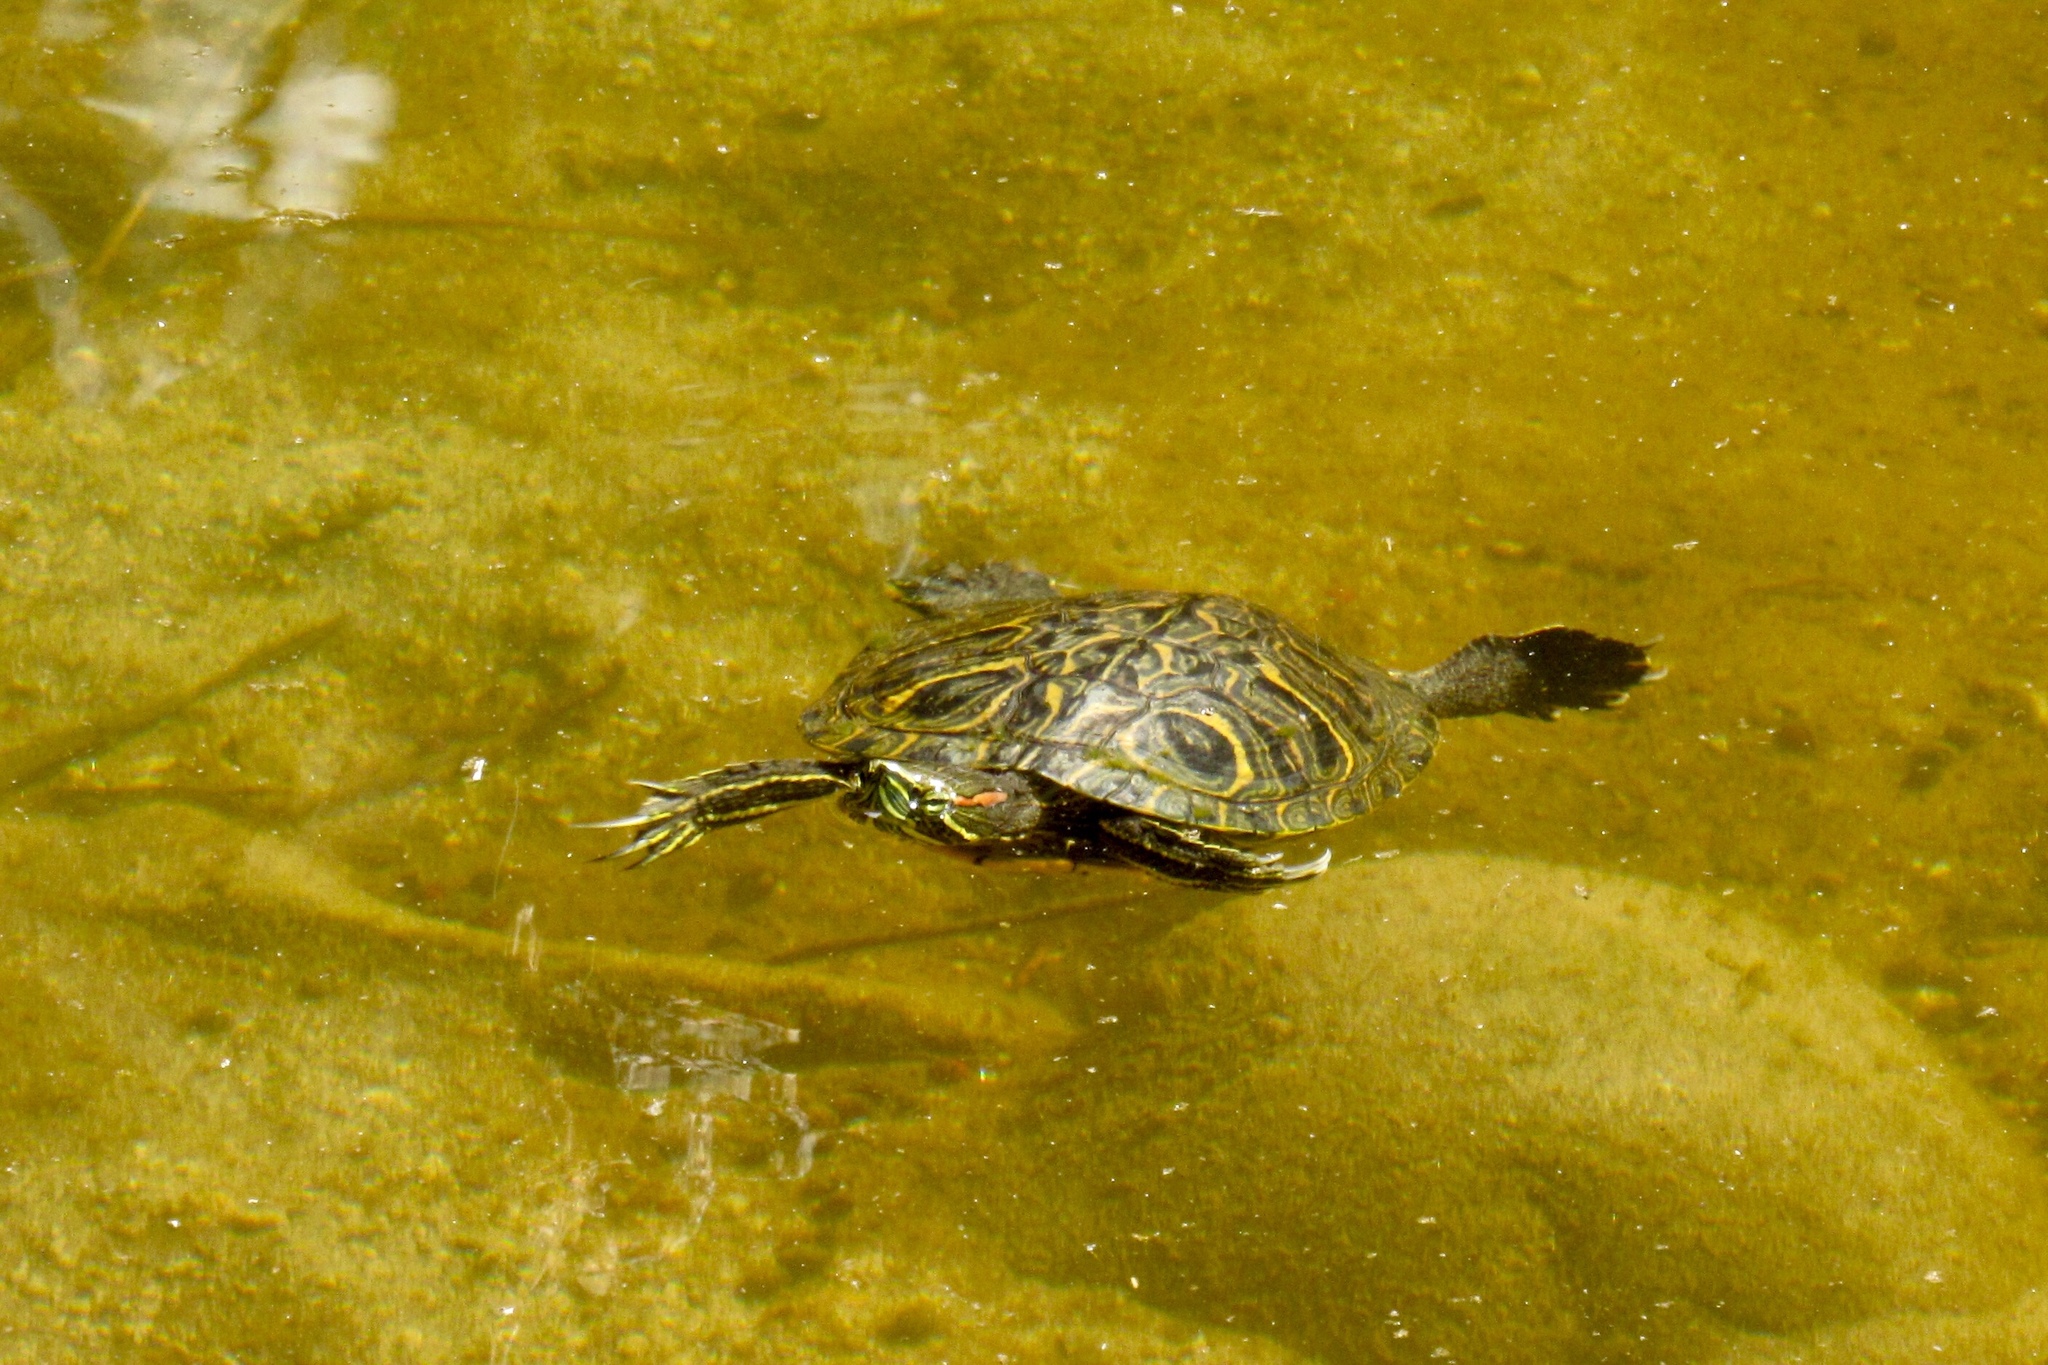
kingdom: Animalia
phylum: Chordata
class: Testudines
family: Emydidae
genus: Trachemys
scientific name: Trachemys scripta
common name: Slider
